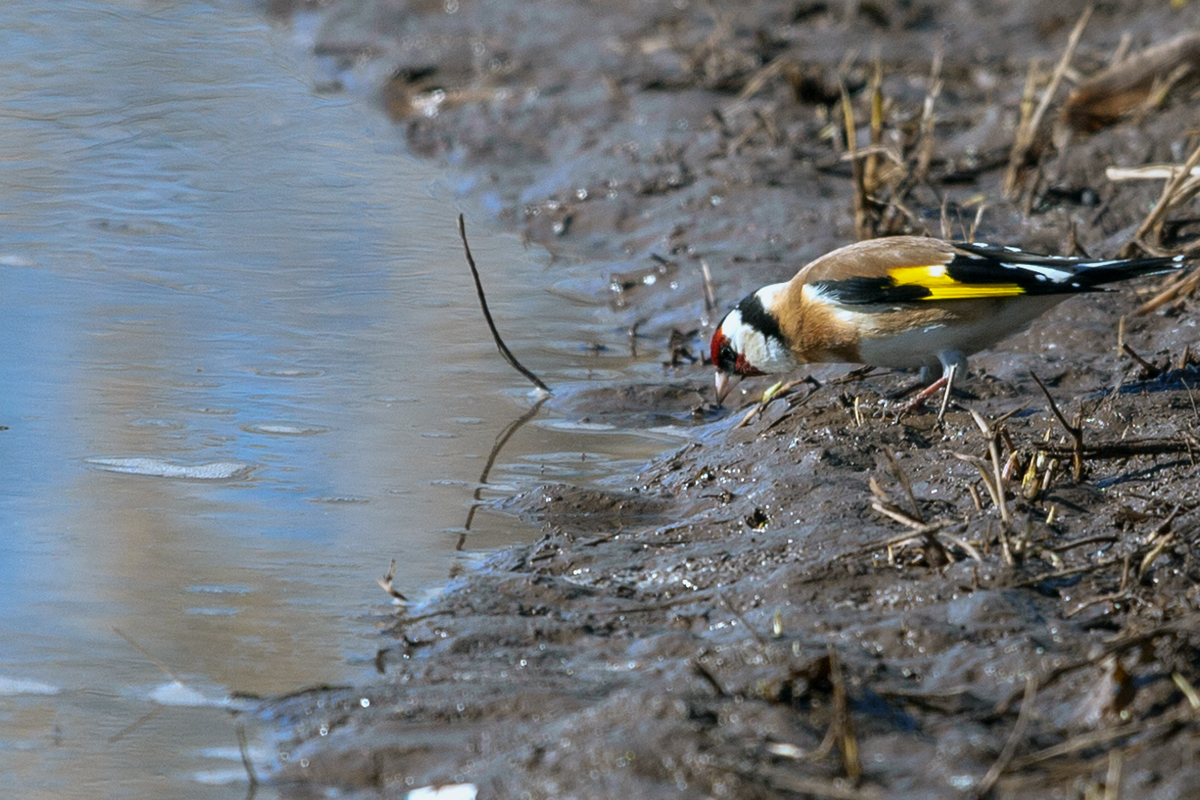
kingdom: Animalia
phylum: Chordata
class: Aves
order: Passeriformes
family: Fringillidae
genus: Carduelis
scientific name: Carduelis carduelis
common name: European goldfinch
